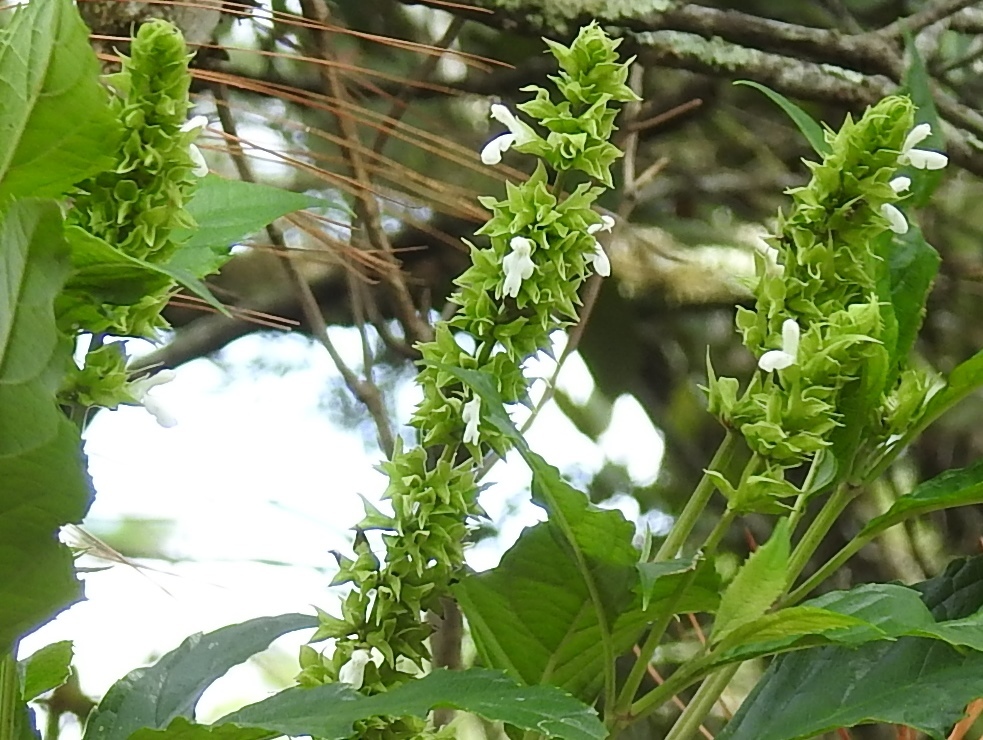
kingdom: Plantae
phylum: Tracheophyta
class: Magnoliopsida
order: Lamiales
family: Lamiaceae
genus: Salvia
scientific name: Salvia collinsii
